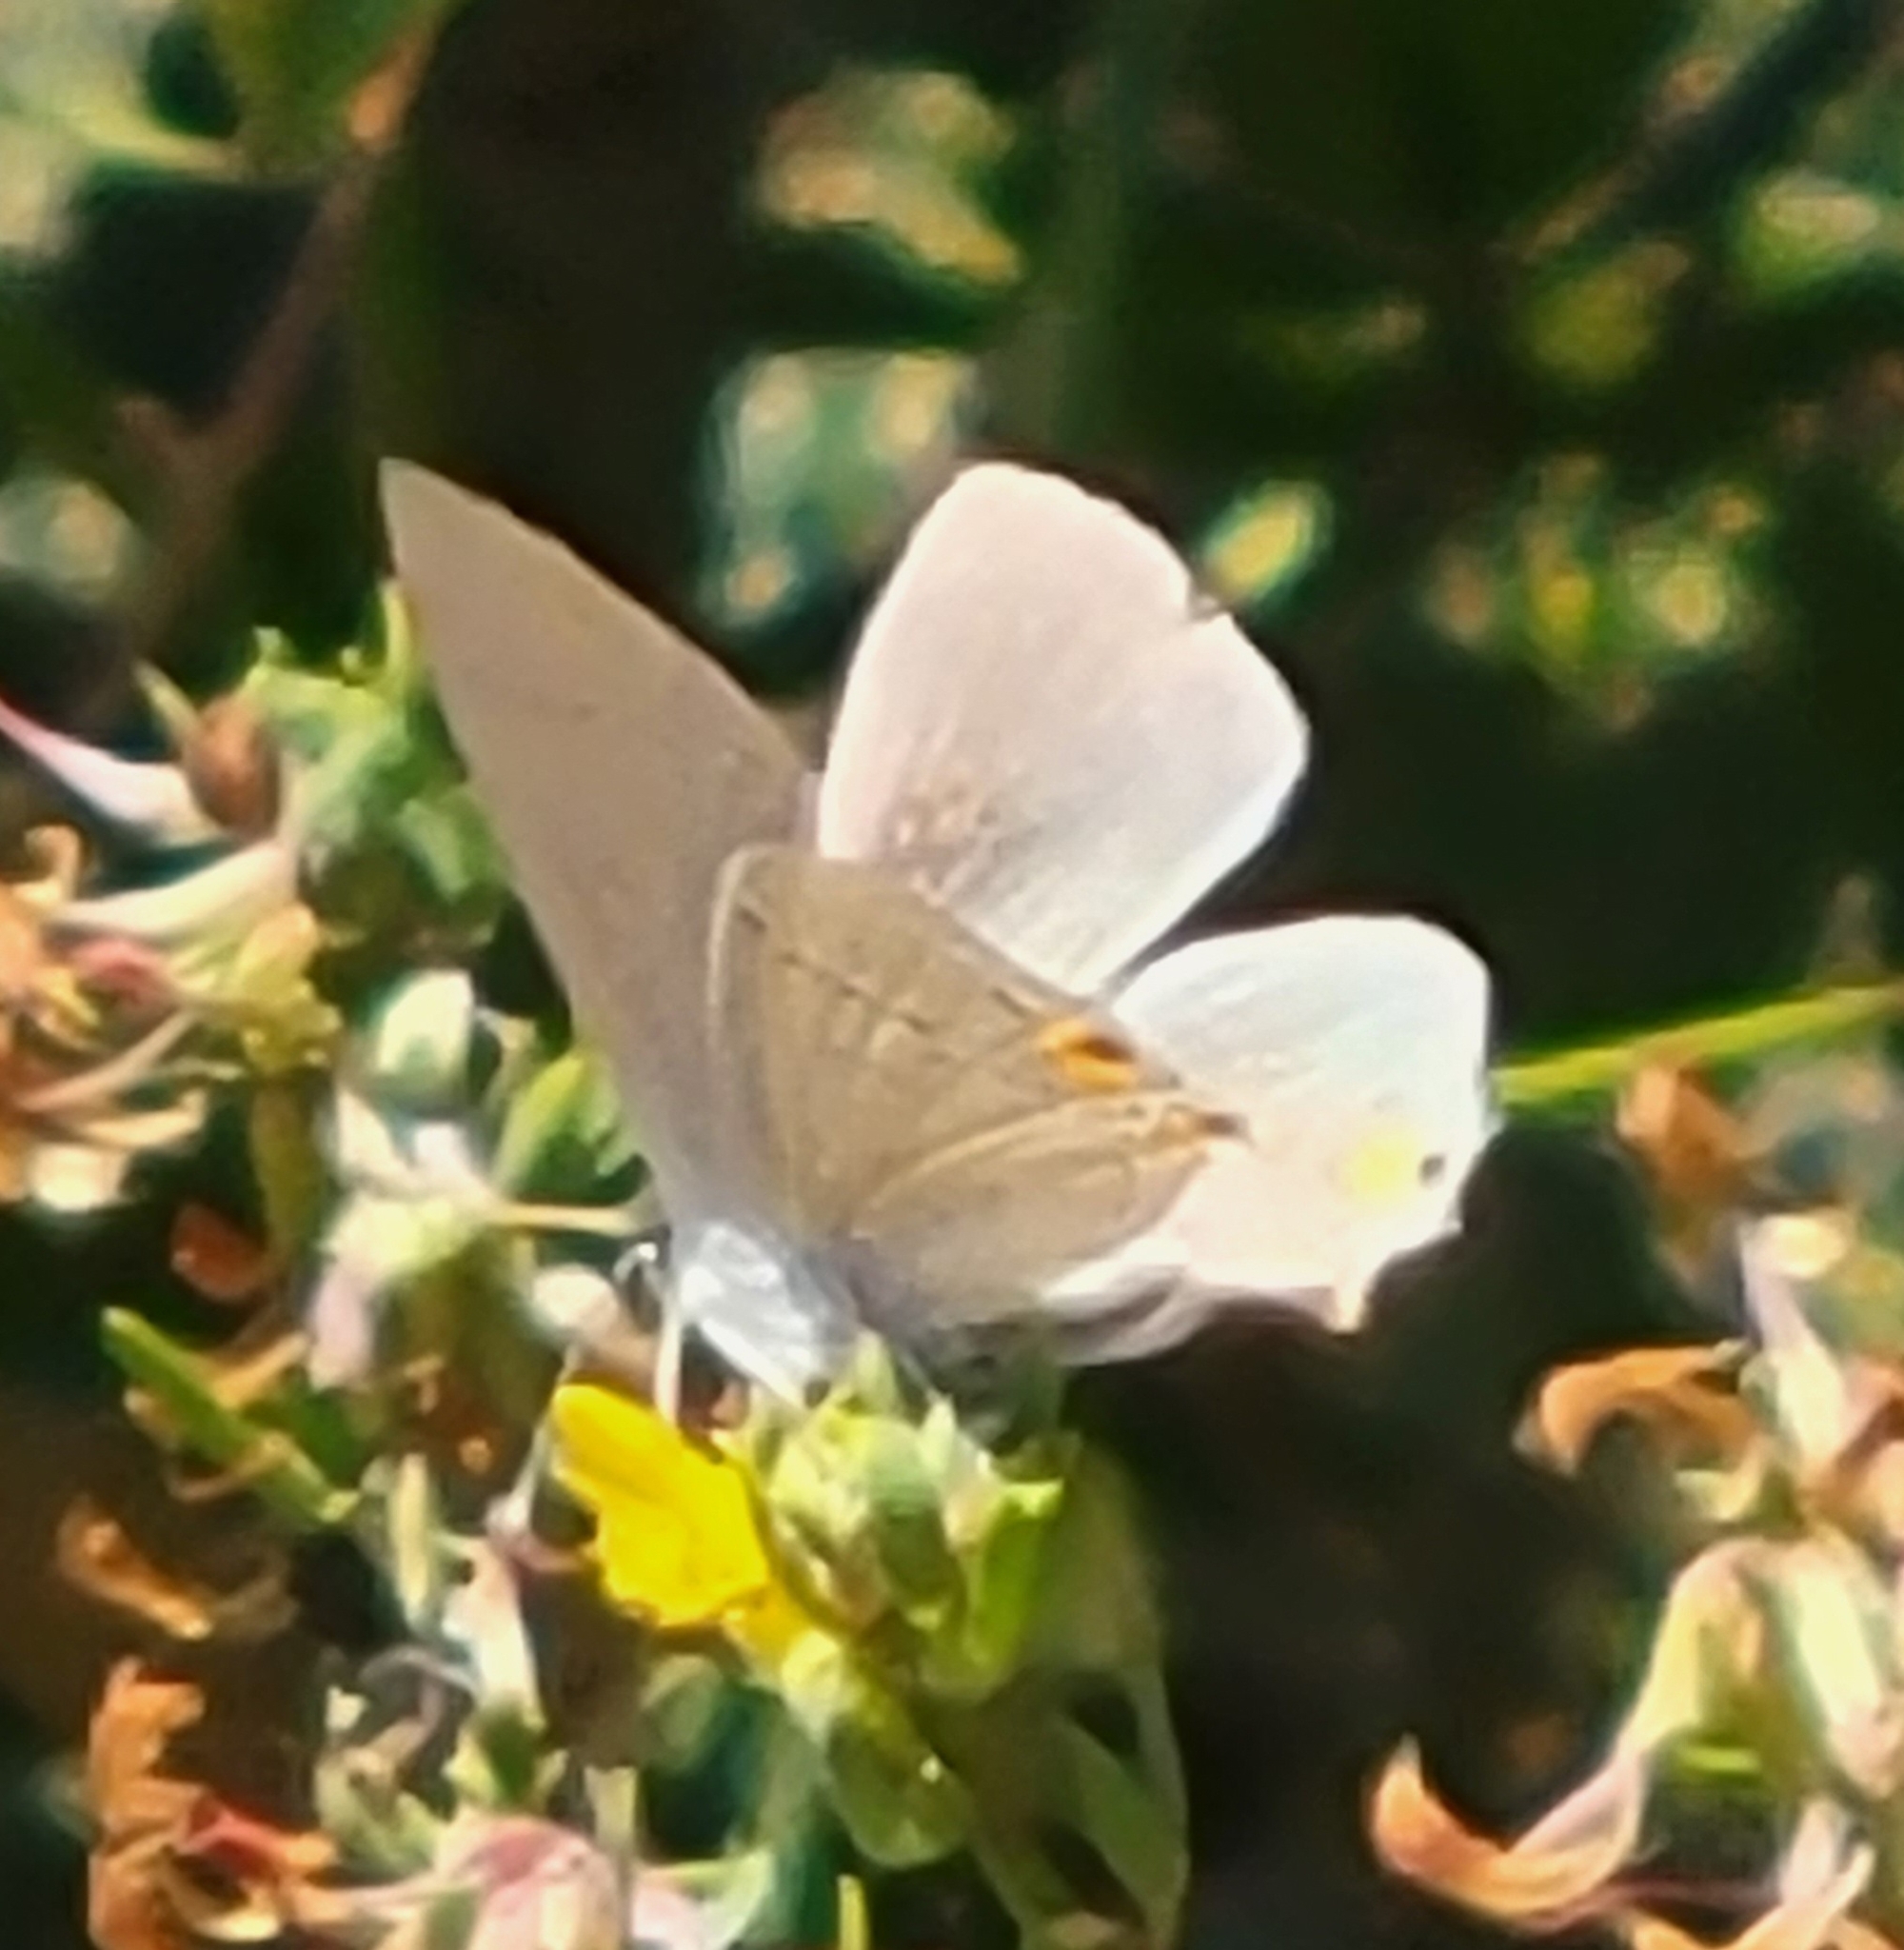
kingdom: Animalia
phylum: Arthropoda
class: Insecta
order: Lepidoptera
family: Lycaenidae
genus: Strymon
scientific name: Strymon melinus
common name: Gray hairstreak
